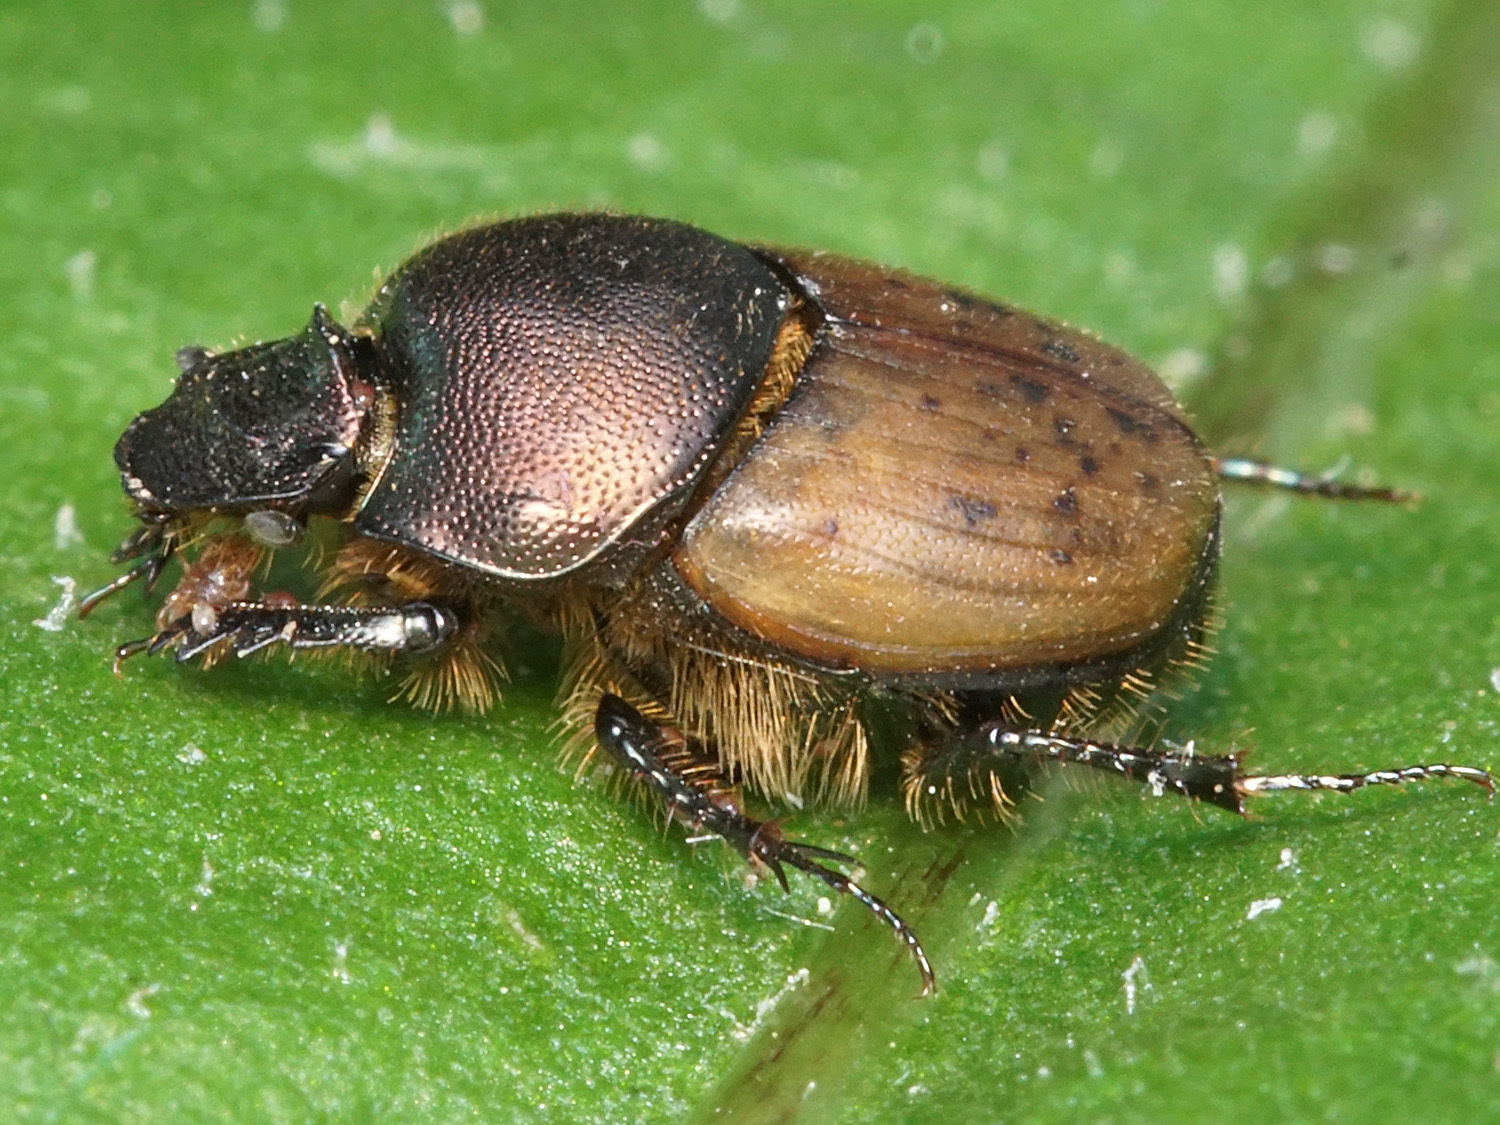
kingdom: Animalia
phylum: Arthropoda
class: Insecta
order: Coleoptera
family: Scarabaeidae
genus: Onthophagus
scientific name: Onthophagus coenobita
